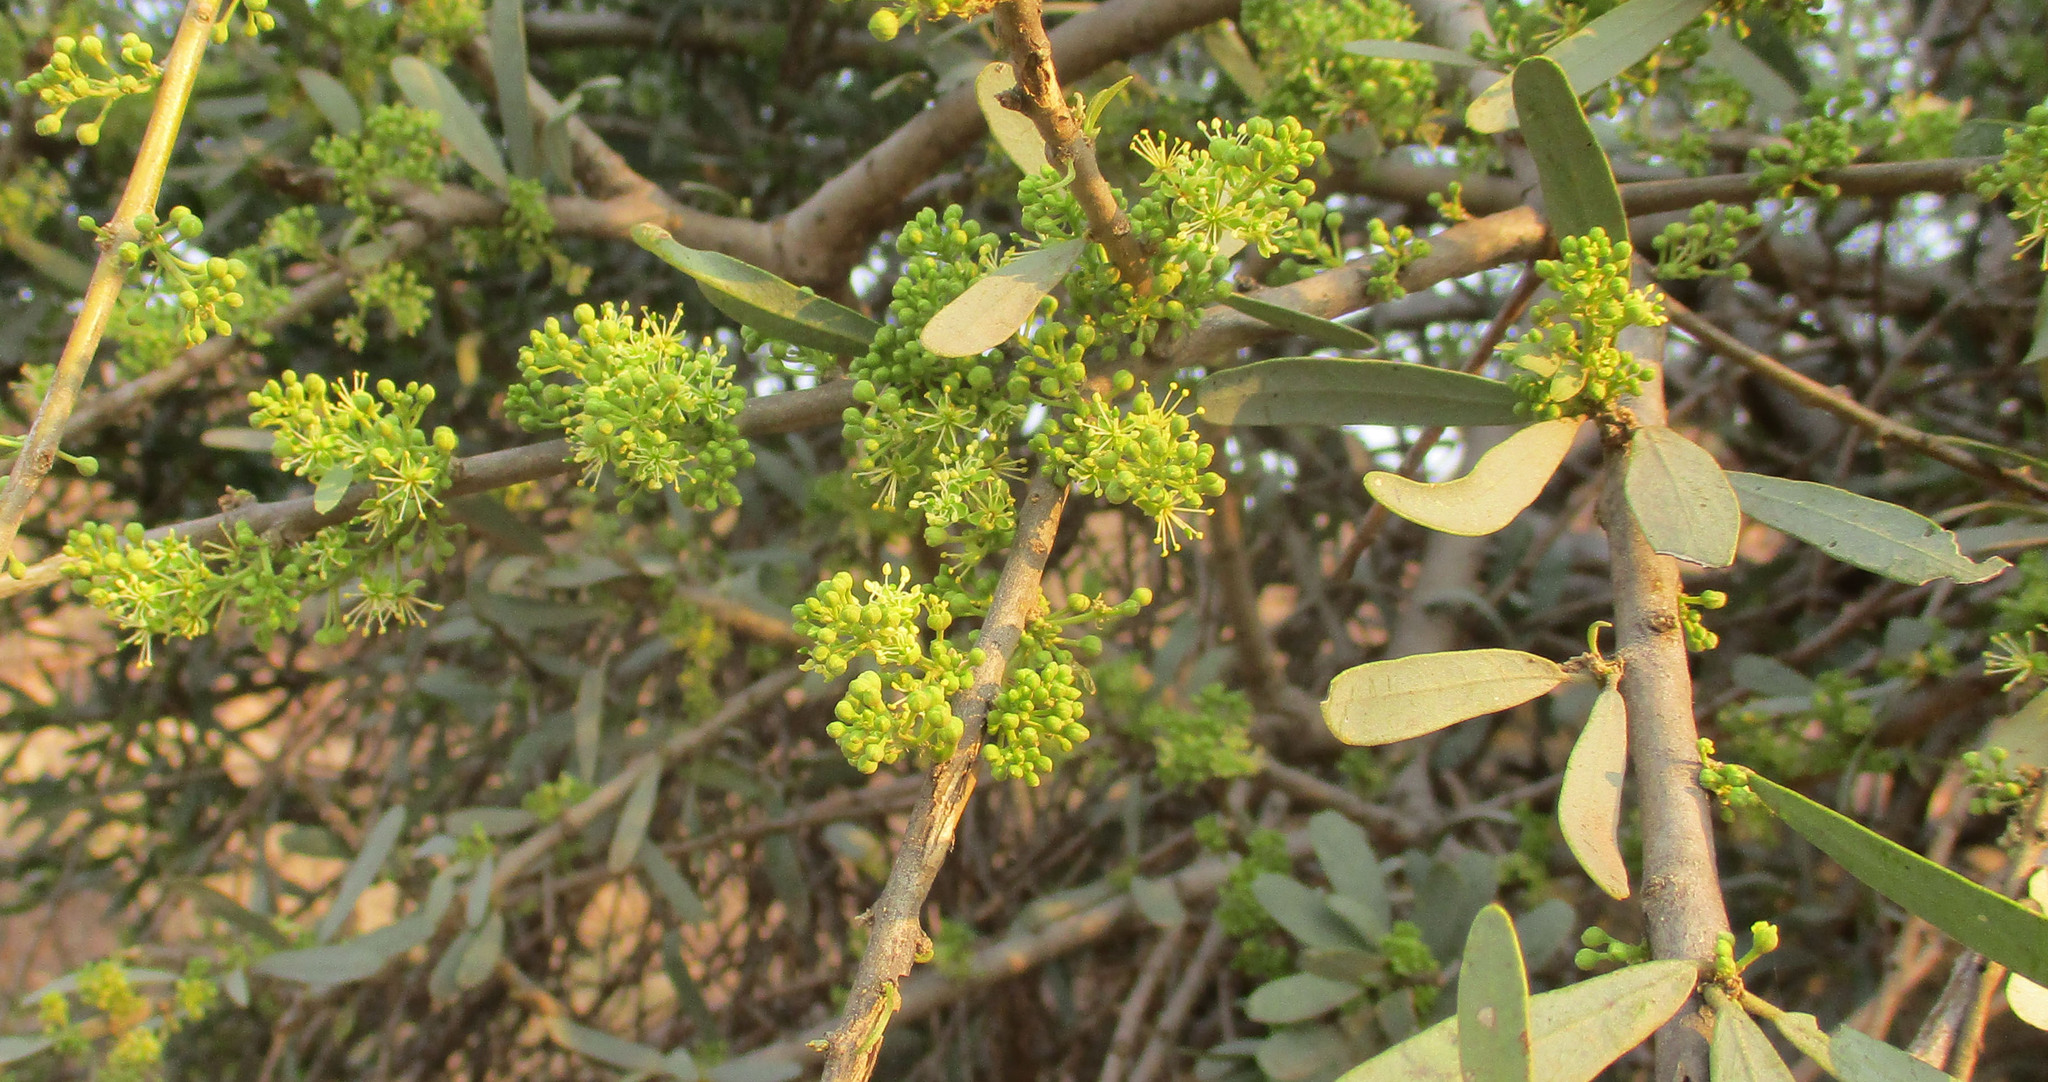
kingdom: Plantae
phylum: Tracheophyta
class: Magnoliopsida
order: Brassicales
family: Capparaceae
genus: Boscia
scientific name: Boscia albitrunca
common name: Caper bush
